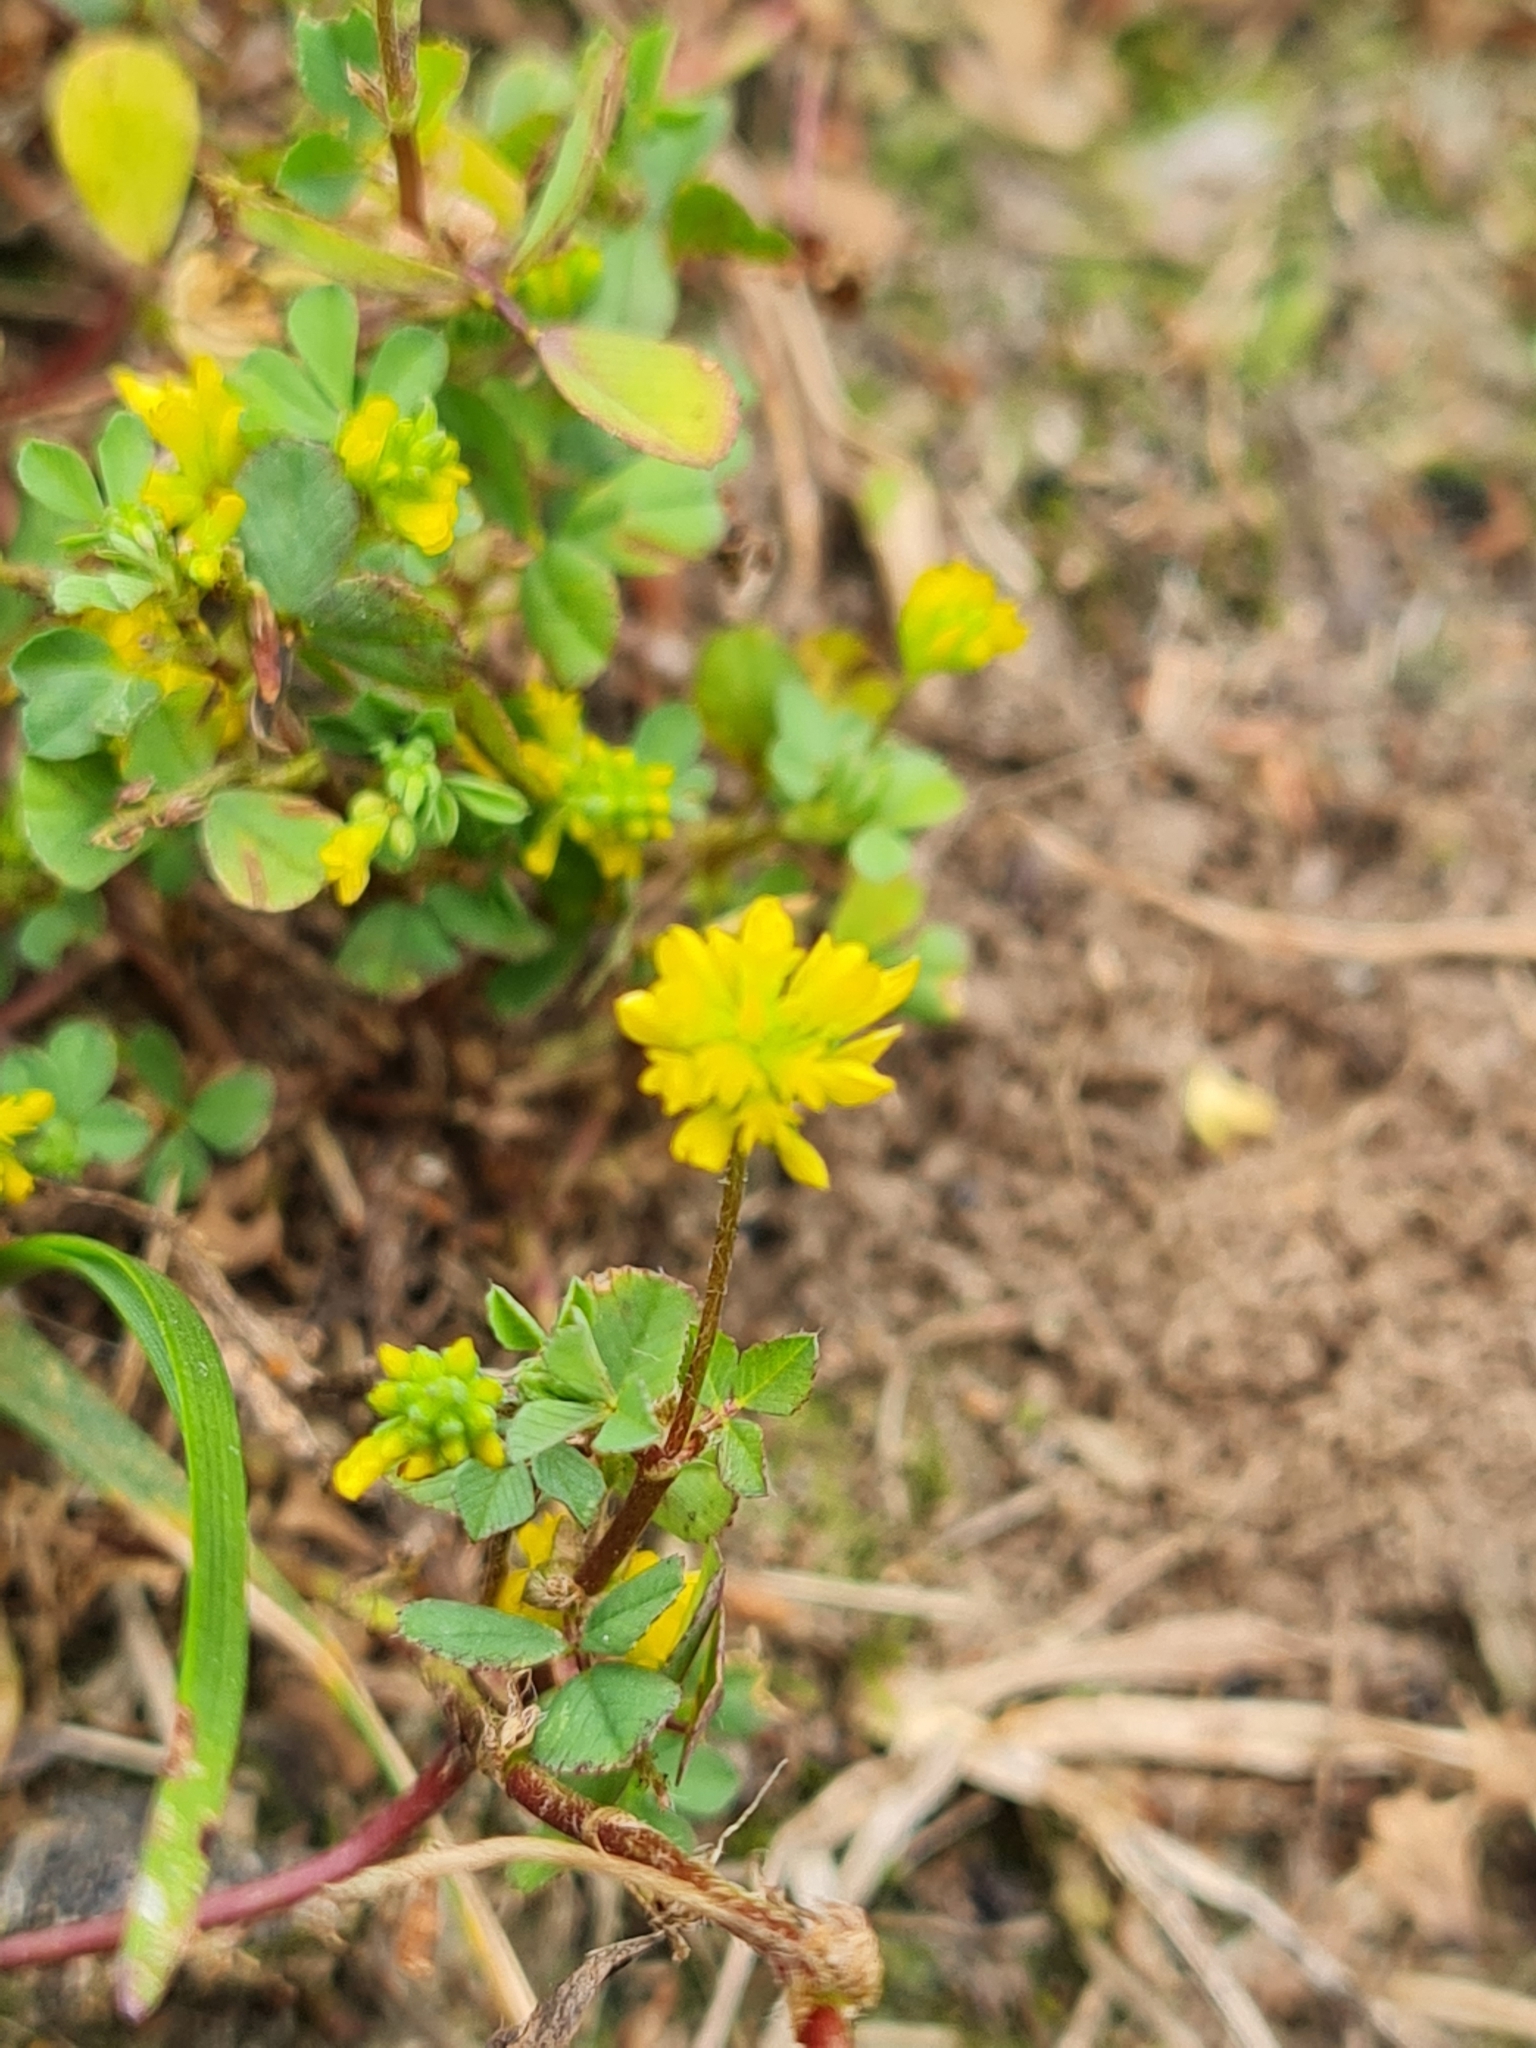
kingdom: Plantae
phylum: Tracheophyta
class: Magnoliopsida
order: Fabales
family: Fabaceae
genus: Trifolium
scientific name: Trifolium dubium
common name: Suckling clover
